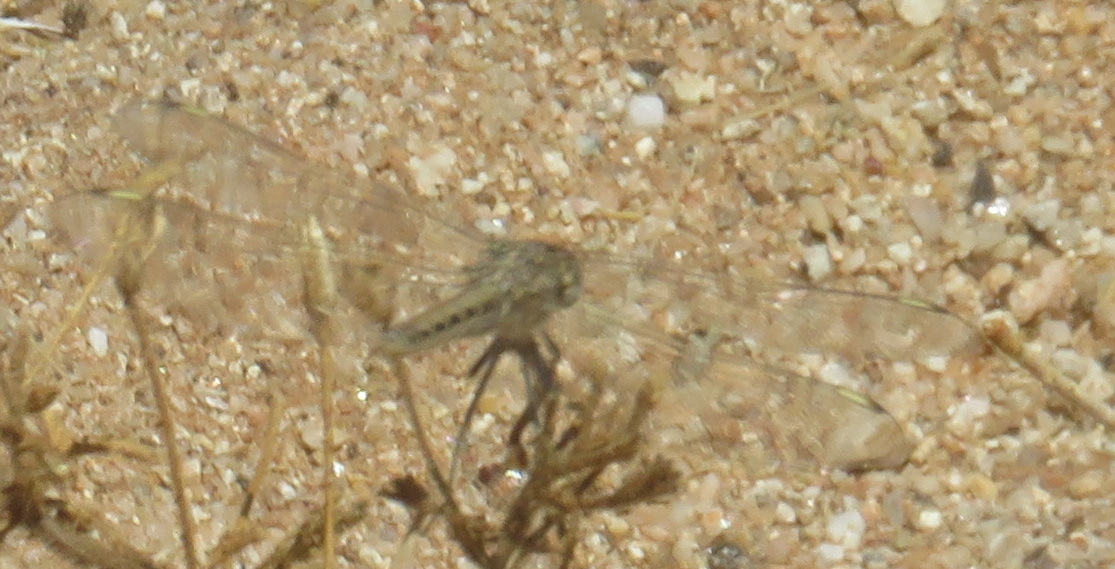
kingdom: Animalia
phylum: Arthropoda
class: Insecta
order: Odonata
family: Libellulidae
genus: Brachythemis
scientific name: Brachythemis leucosticta
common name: Banded groundling
